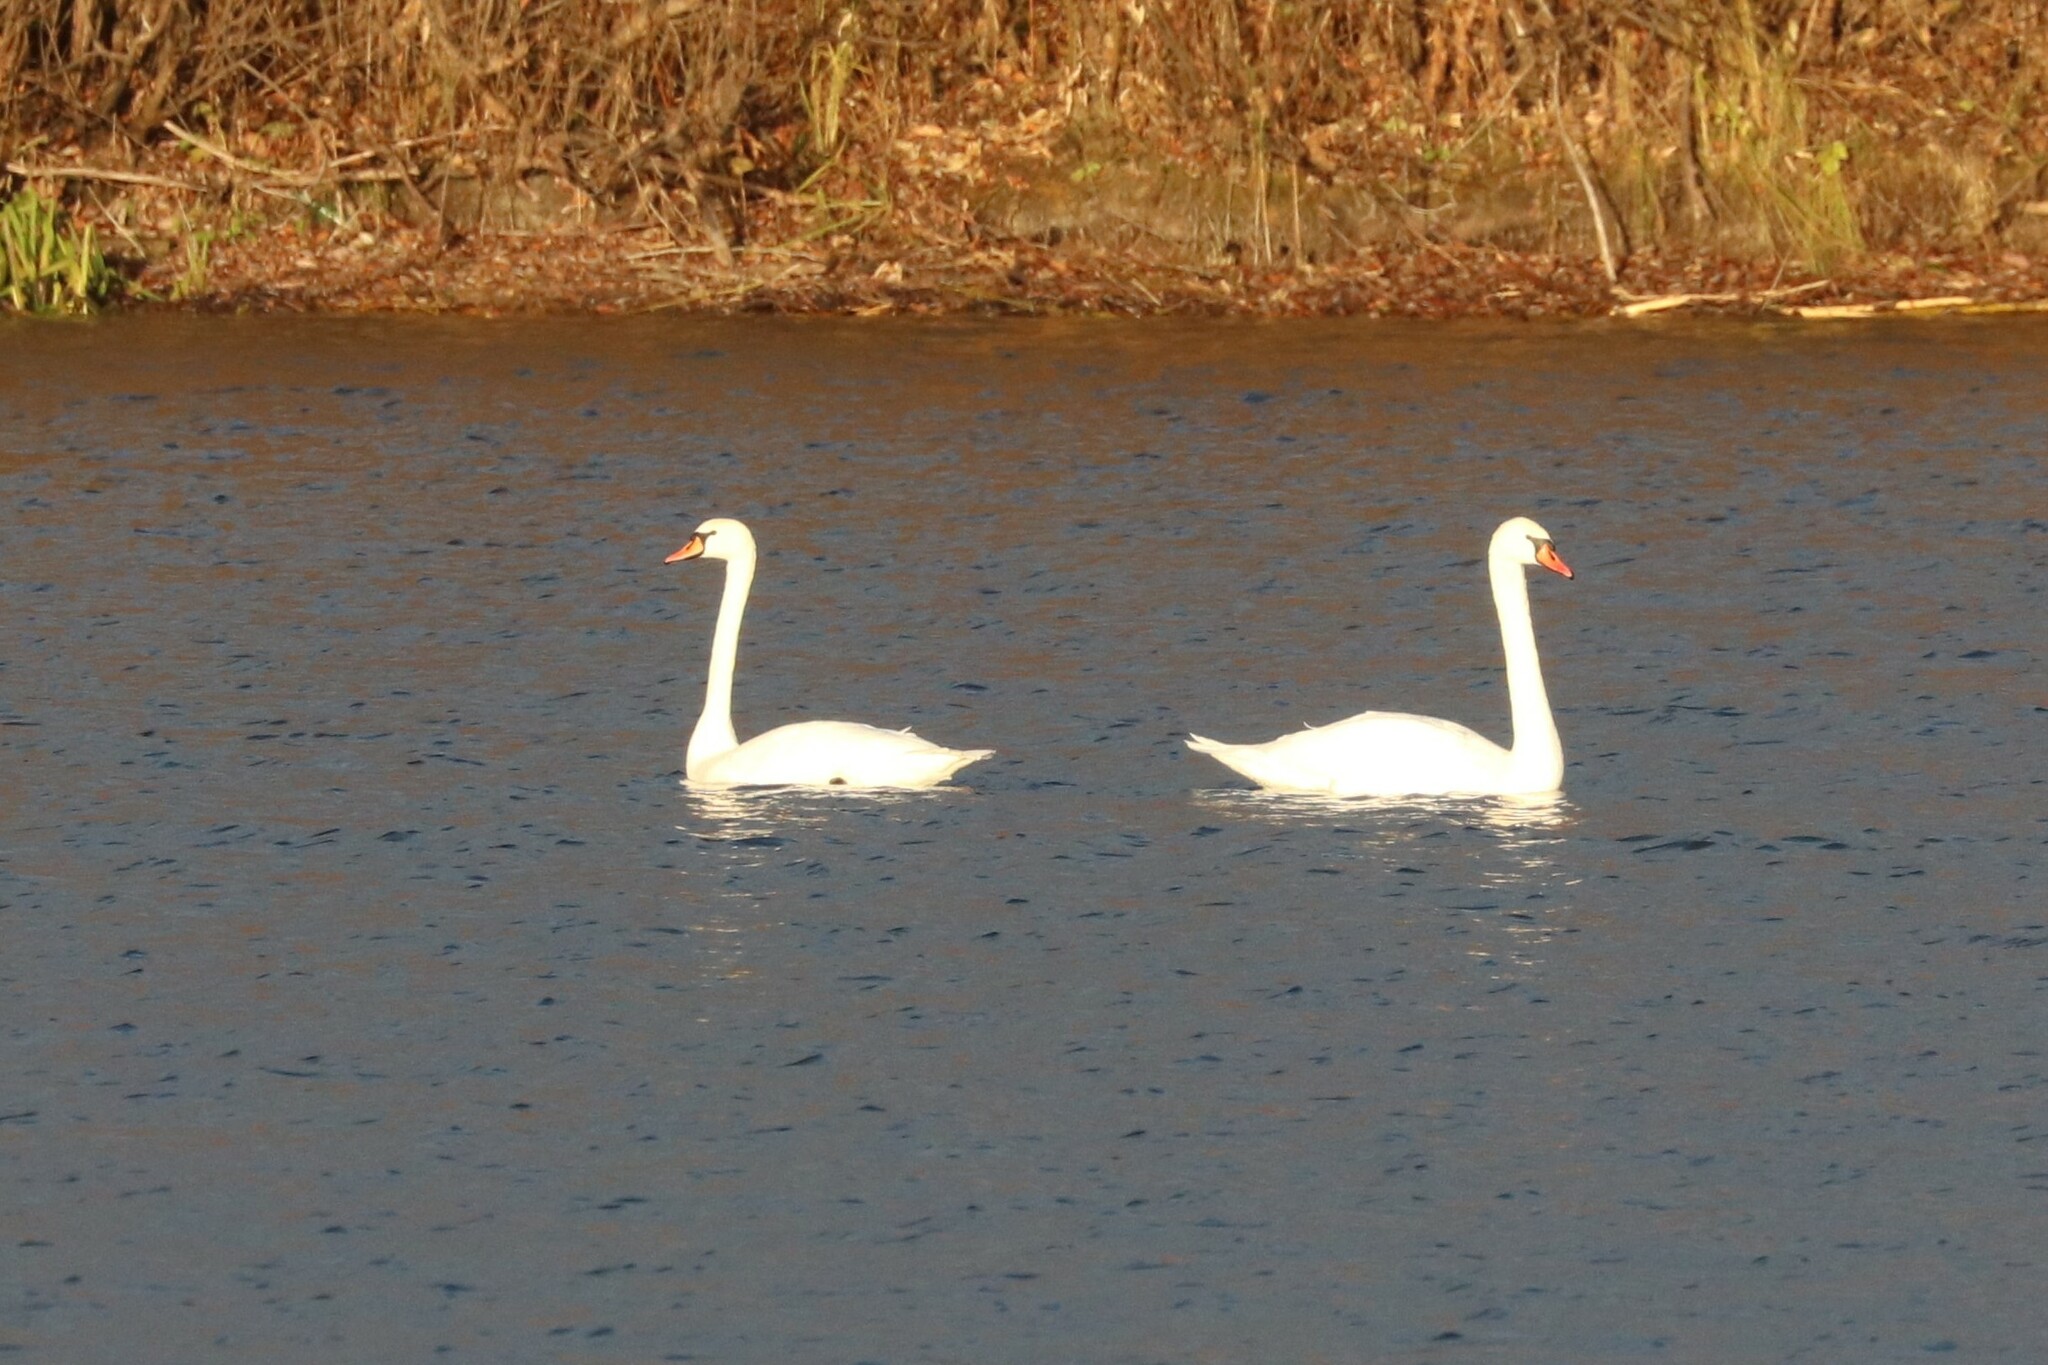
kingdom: Animalia
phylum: Chordata
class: Aves
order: Anseriformes
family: Anatidae
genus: Cygnus
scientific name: Cygnus olor
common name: Mute swan
